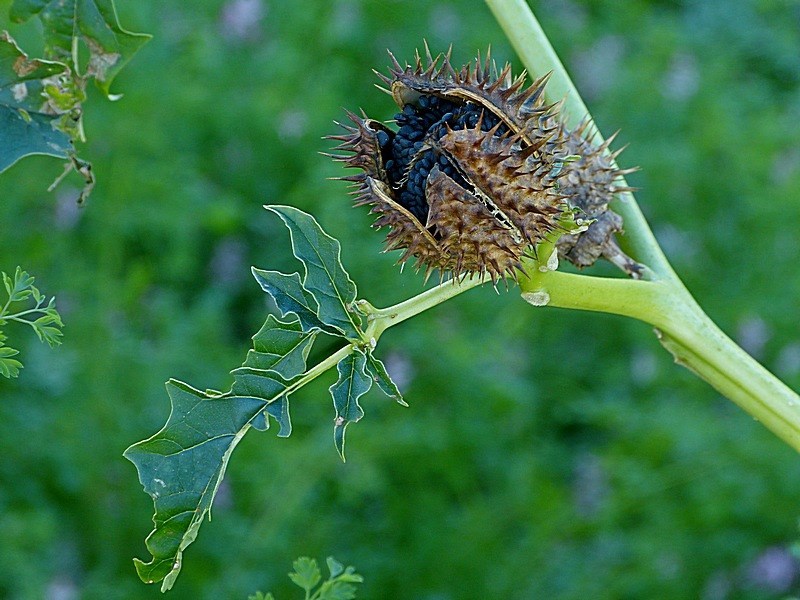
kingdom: Plantae
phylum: Tracheophyta
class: Magnoliopsida
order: Solanales
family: Solanaceae
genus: Datura
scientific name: Datura stramonium
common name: Thorn-apple
